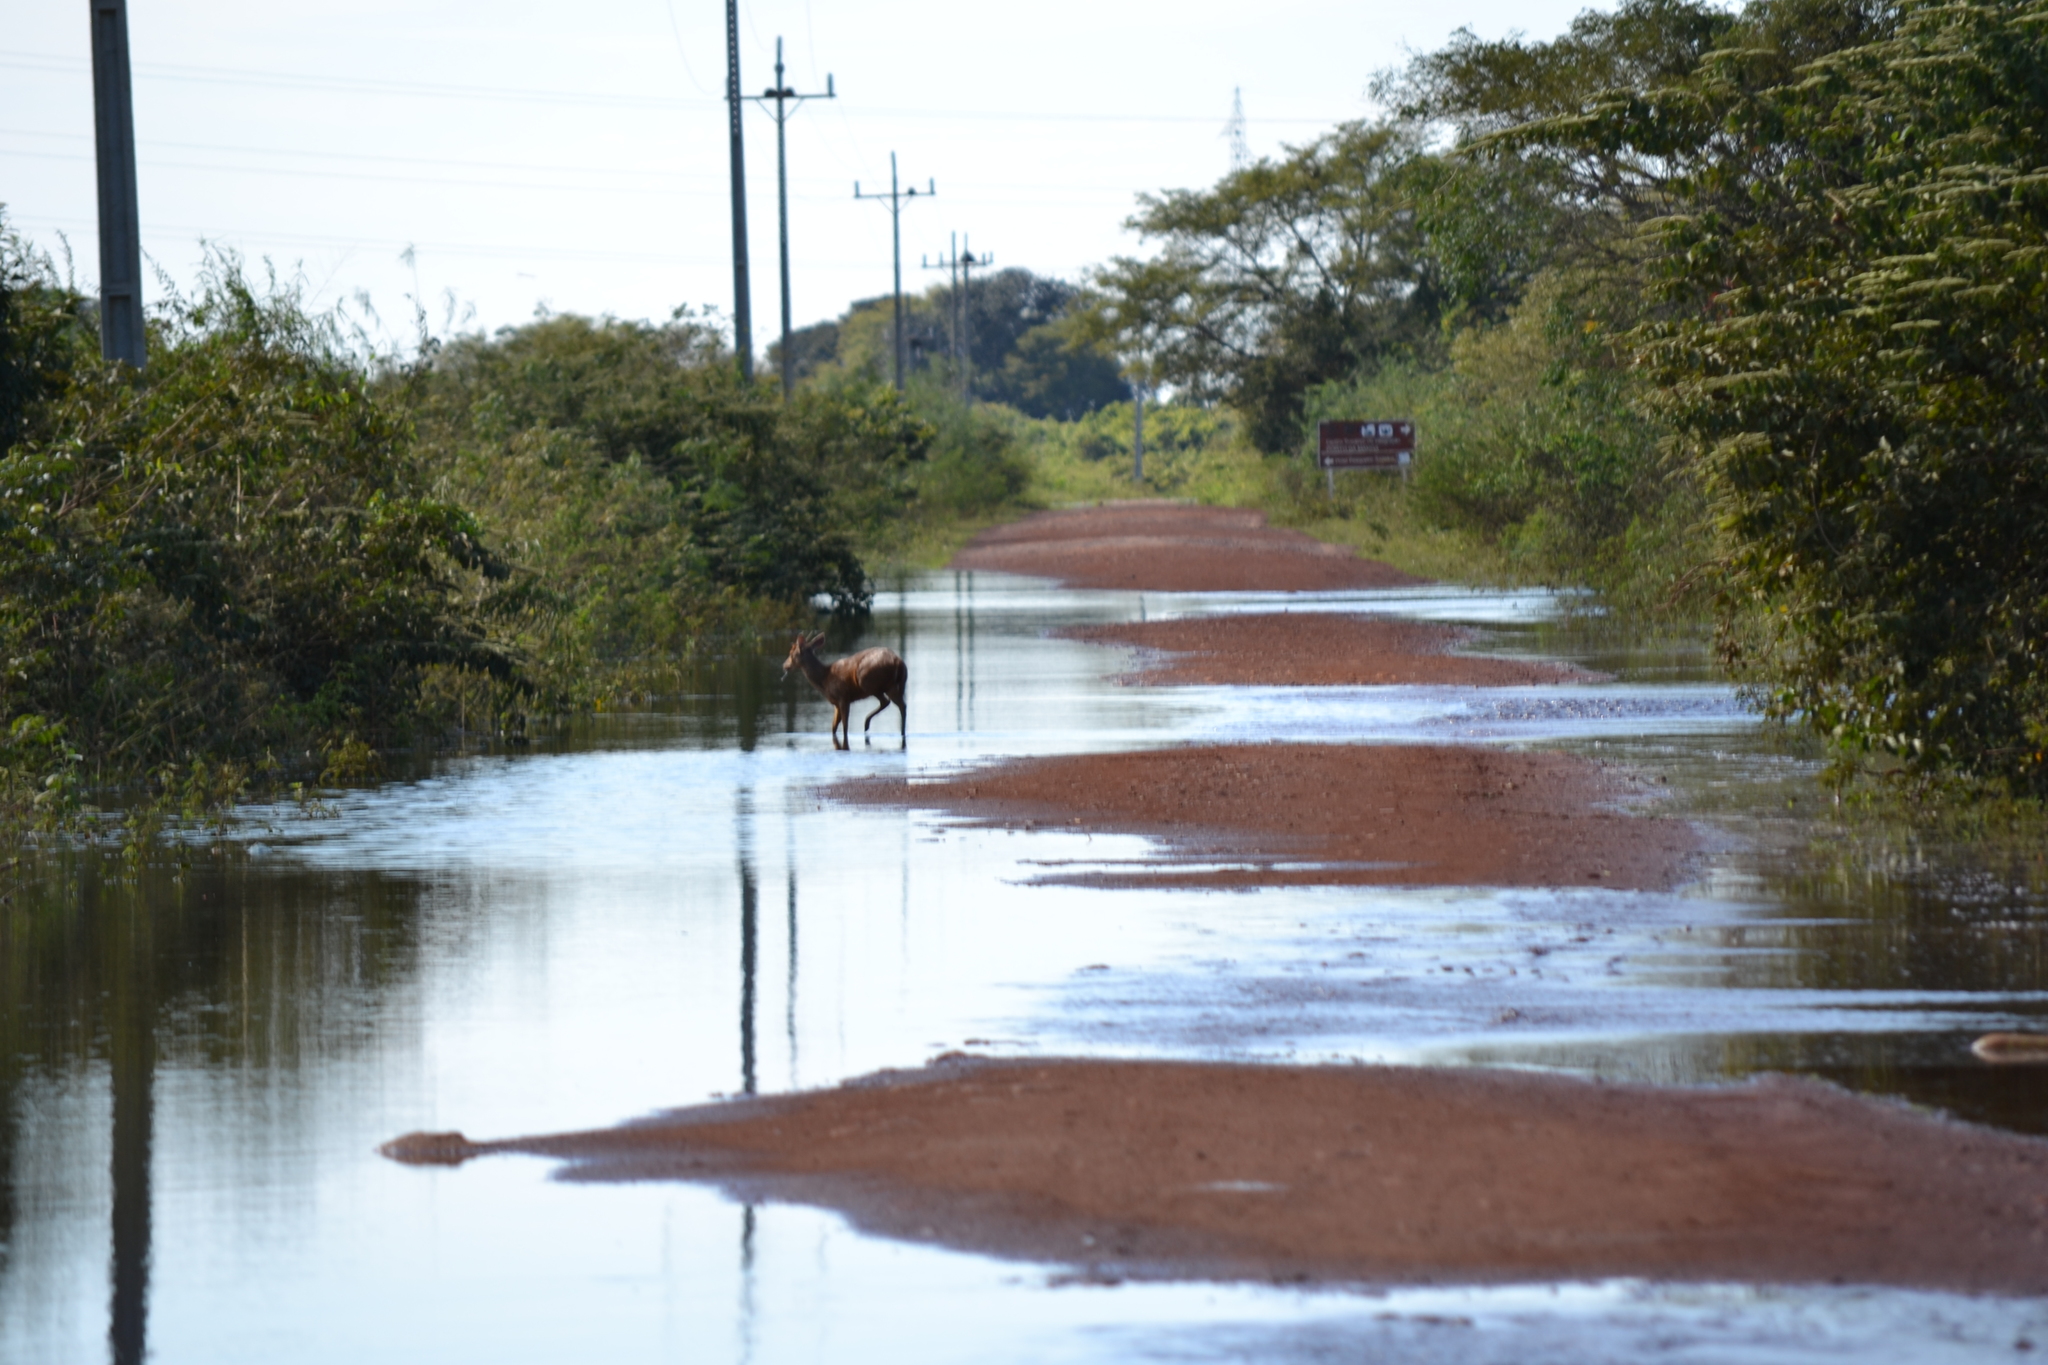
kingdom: Animalia
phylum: Chordata
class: Mammalia
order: Artiodactyla
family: Cervidae
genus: Blastocerus
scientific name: Blastocerus dichotomus
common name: Marsh deer
